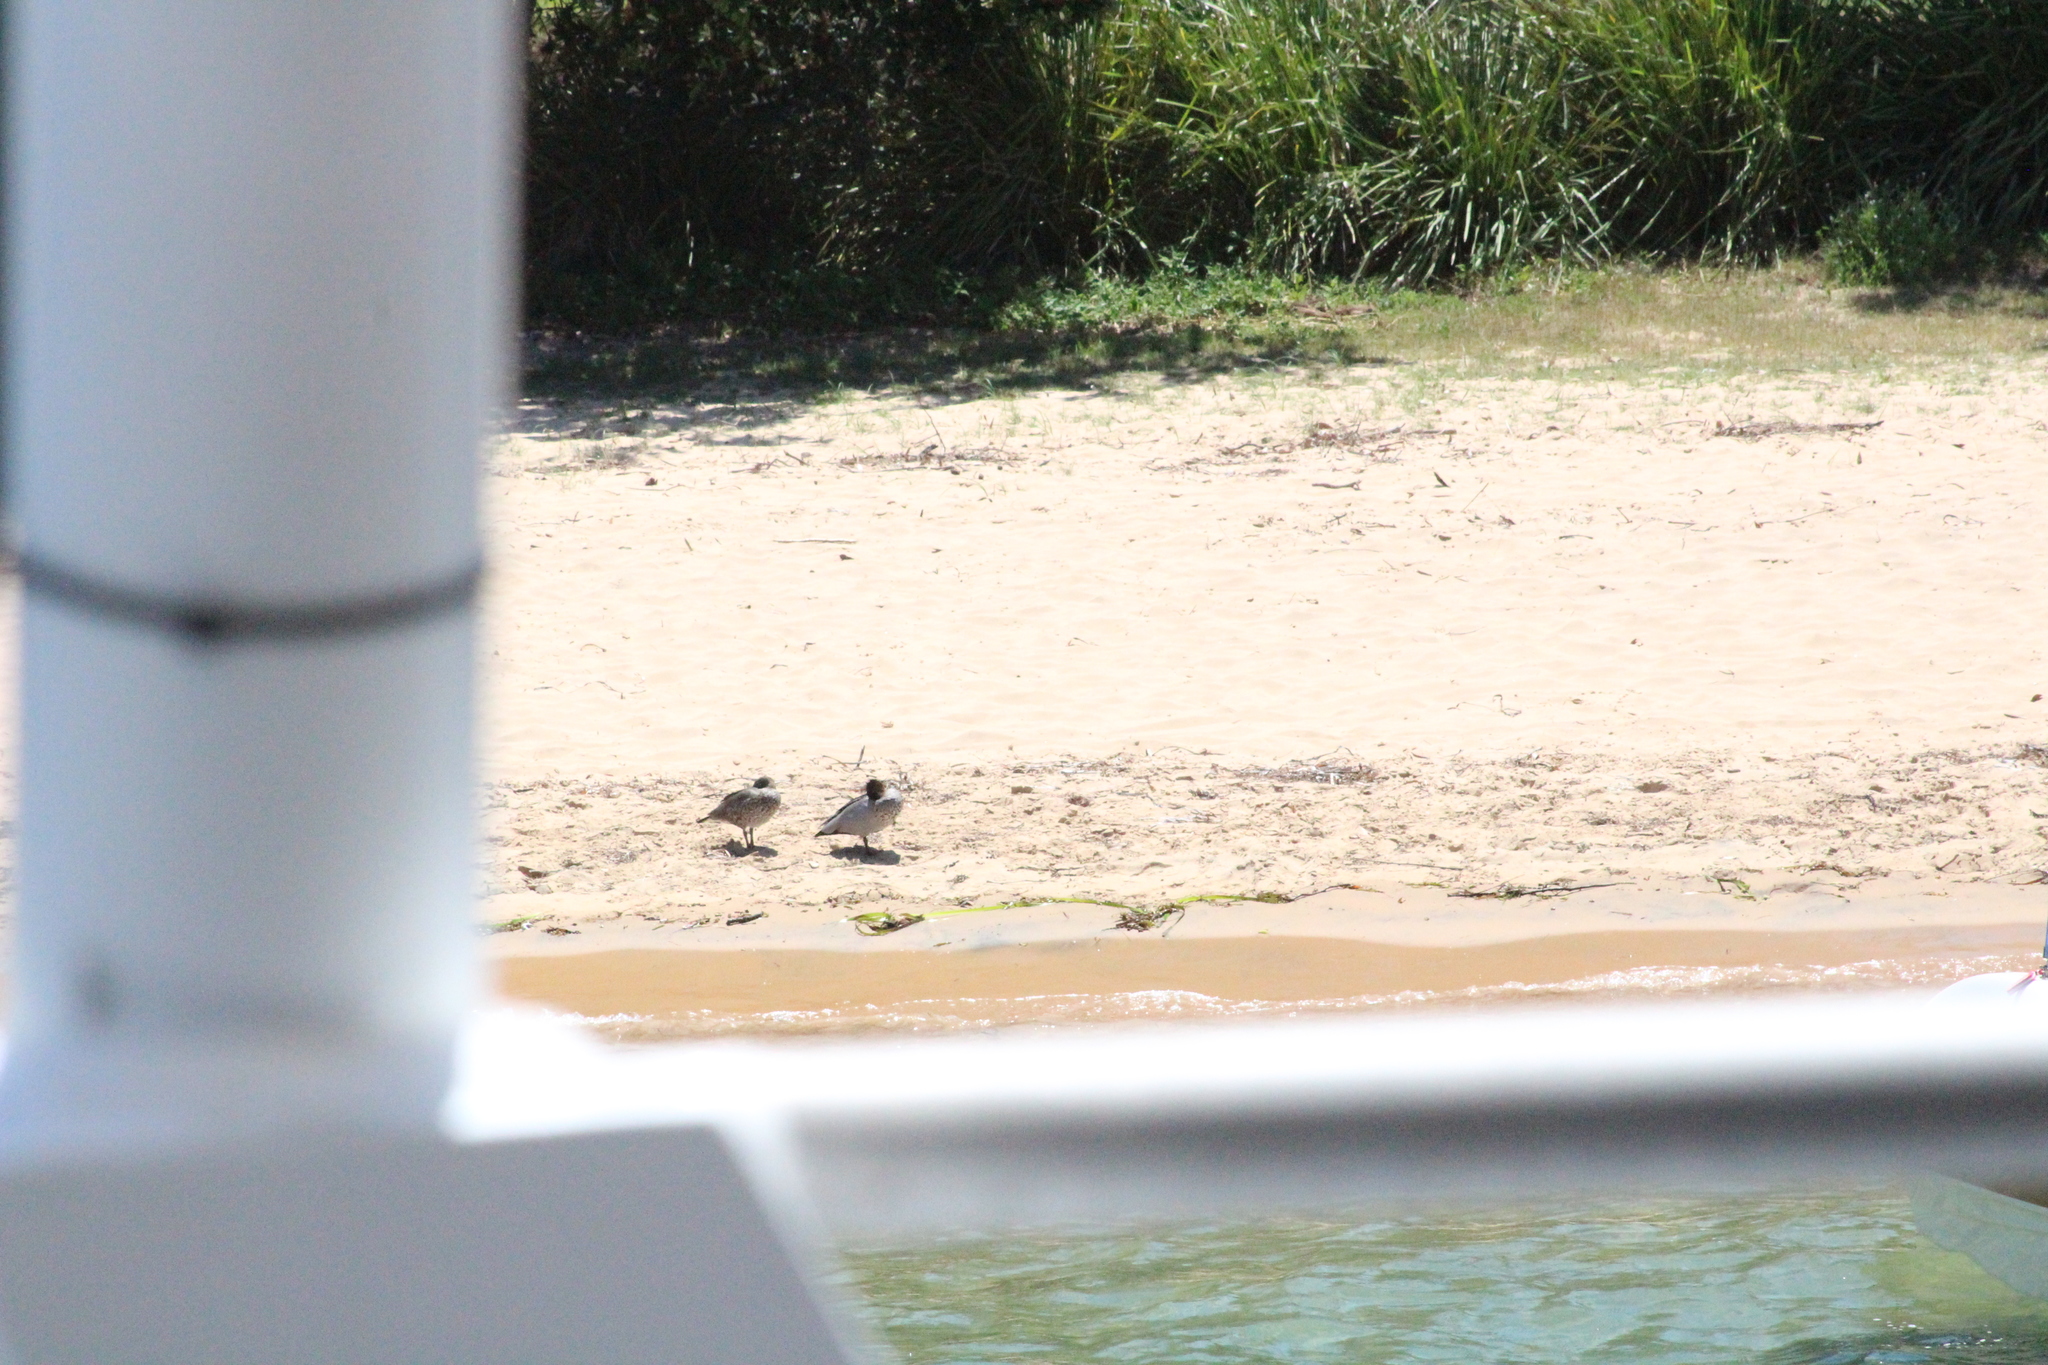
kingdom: Animalia
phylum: Chordata
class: Aves
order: Anseriformes
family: Anatidae
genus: Chenonetta
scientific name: Chenonetta jubata
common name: Maned duck
